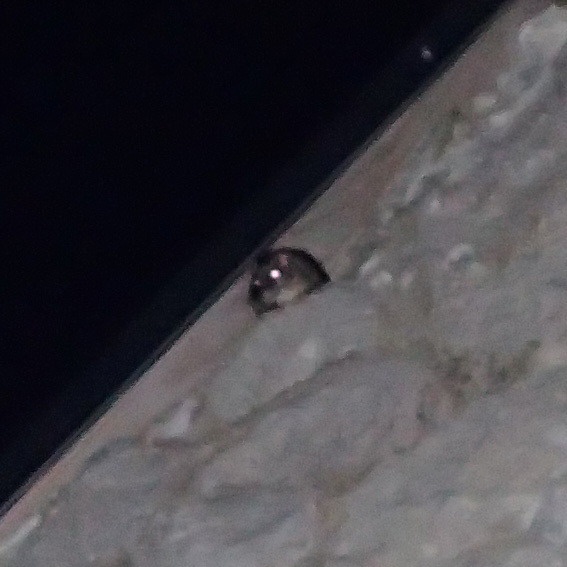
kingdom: Animalia
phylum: Chordata
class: Mammalia
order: Rodentia
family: Gliridae
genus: Glis
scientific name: Glis glis
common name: Fat dormouse
